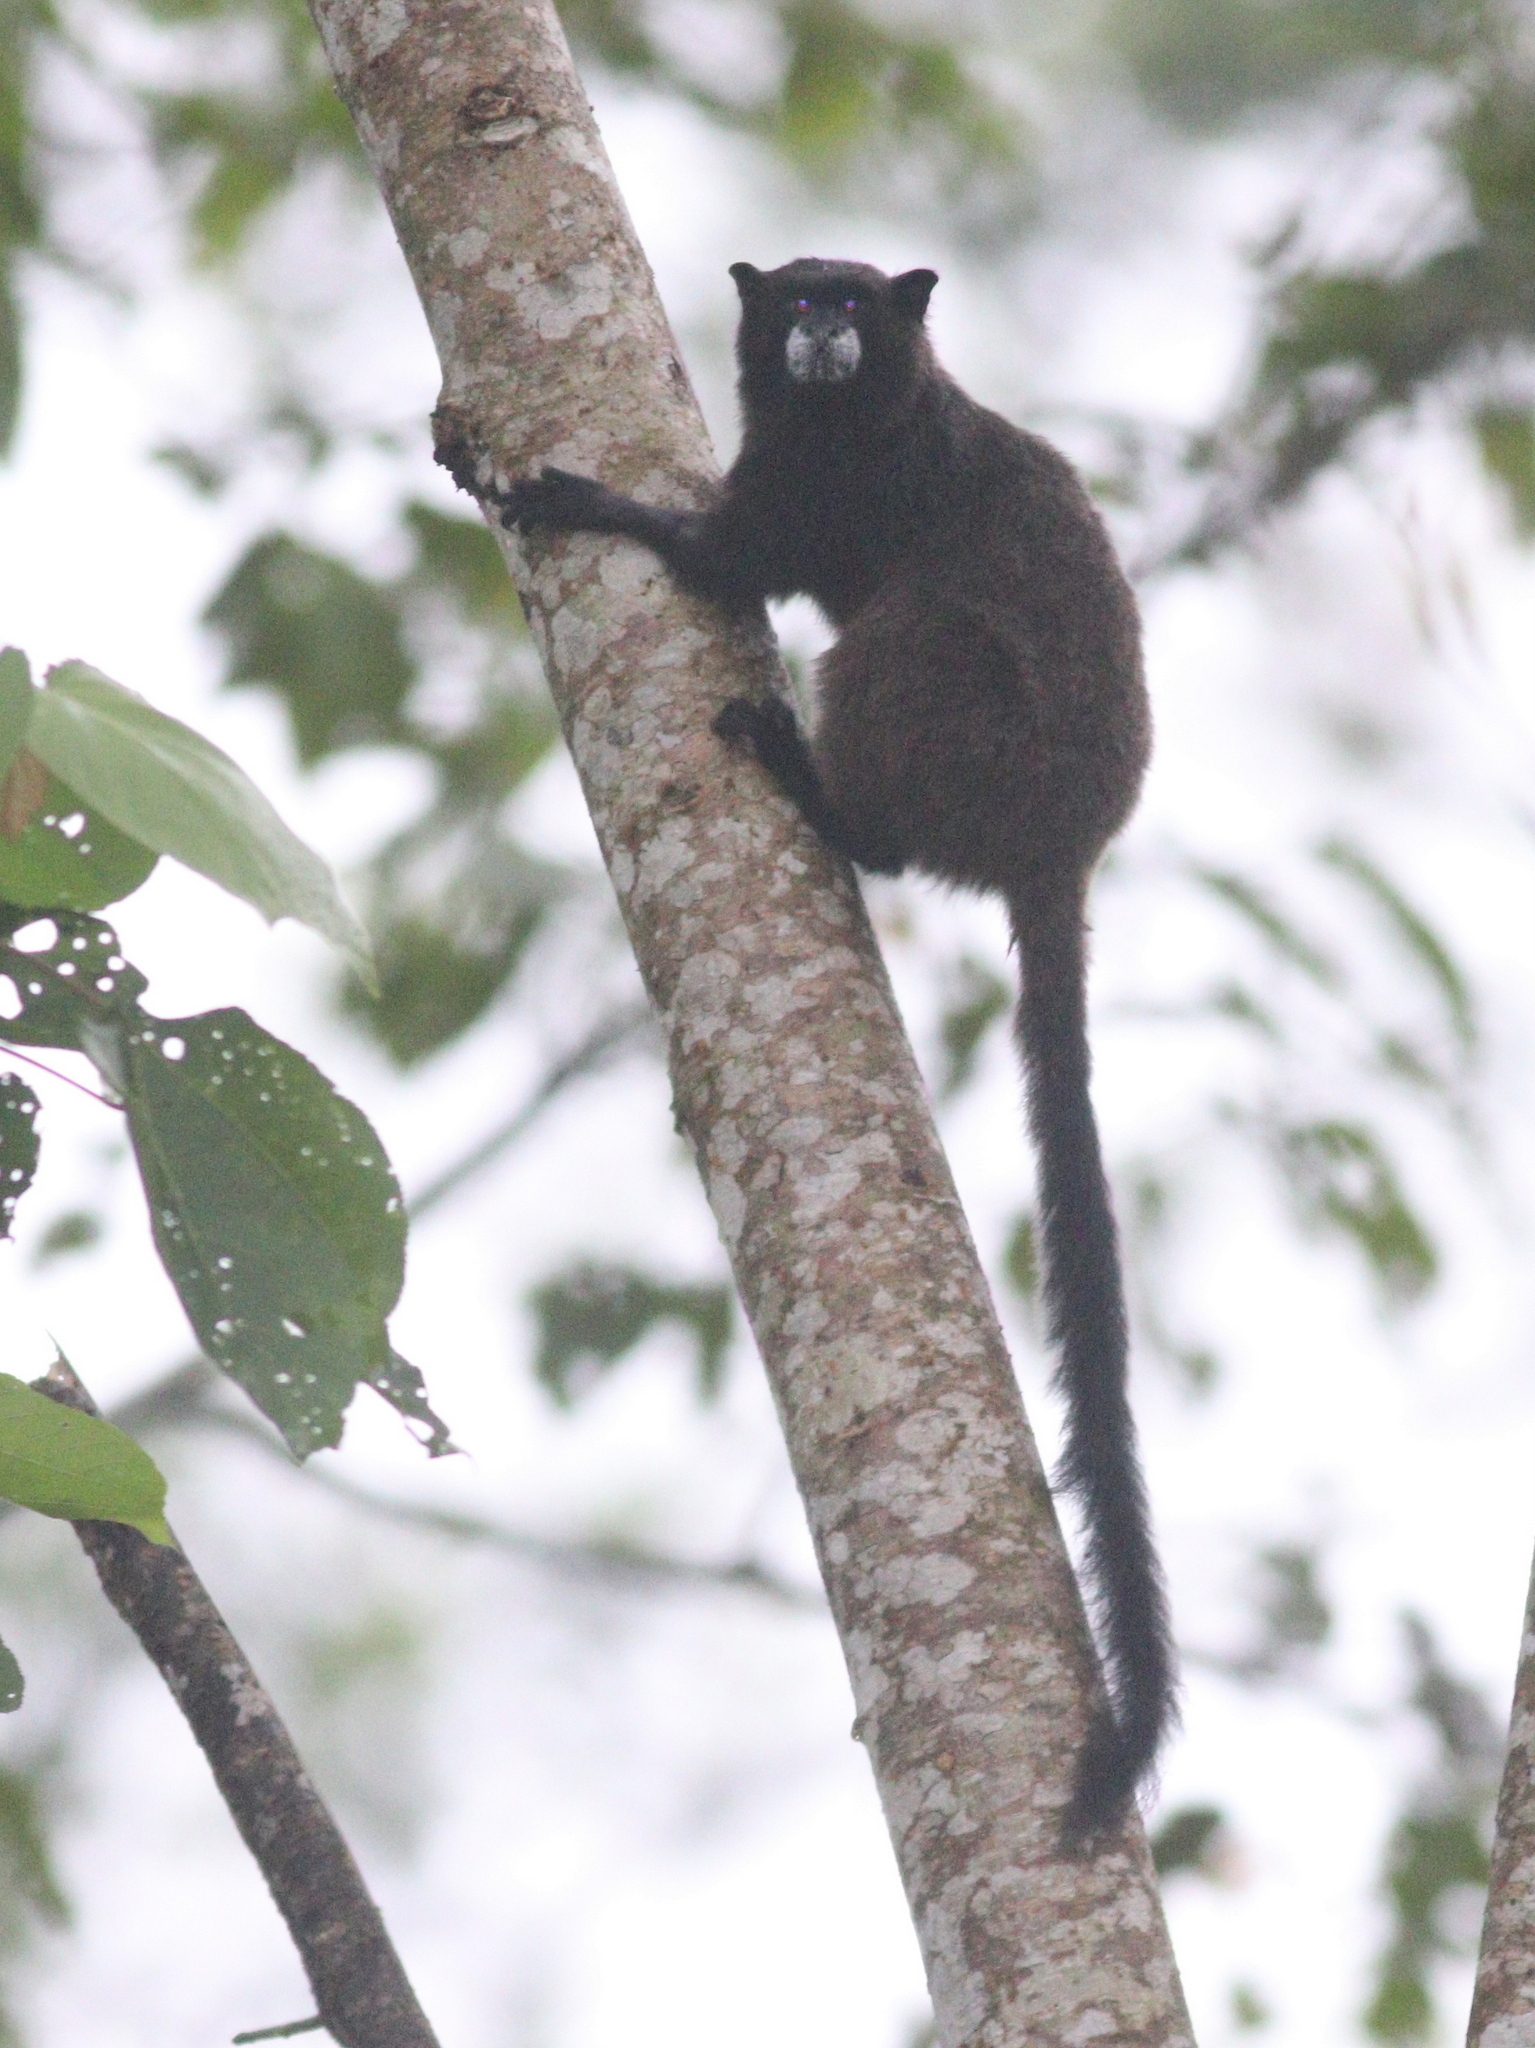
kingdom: Animalia
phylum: Chordata
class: Mammalia
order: Primates
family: Callitrichidae
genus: Leontocebus
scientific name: Leontocebus nigricollis
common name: Black-mantled tamarin
